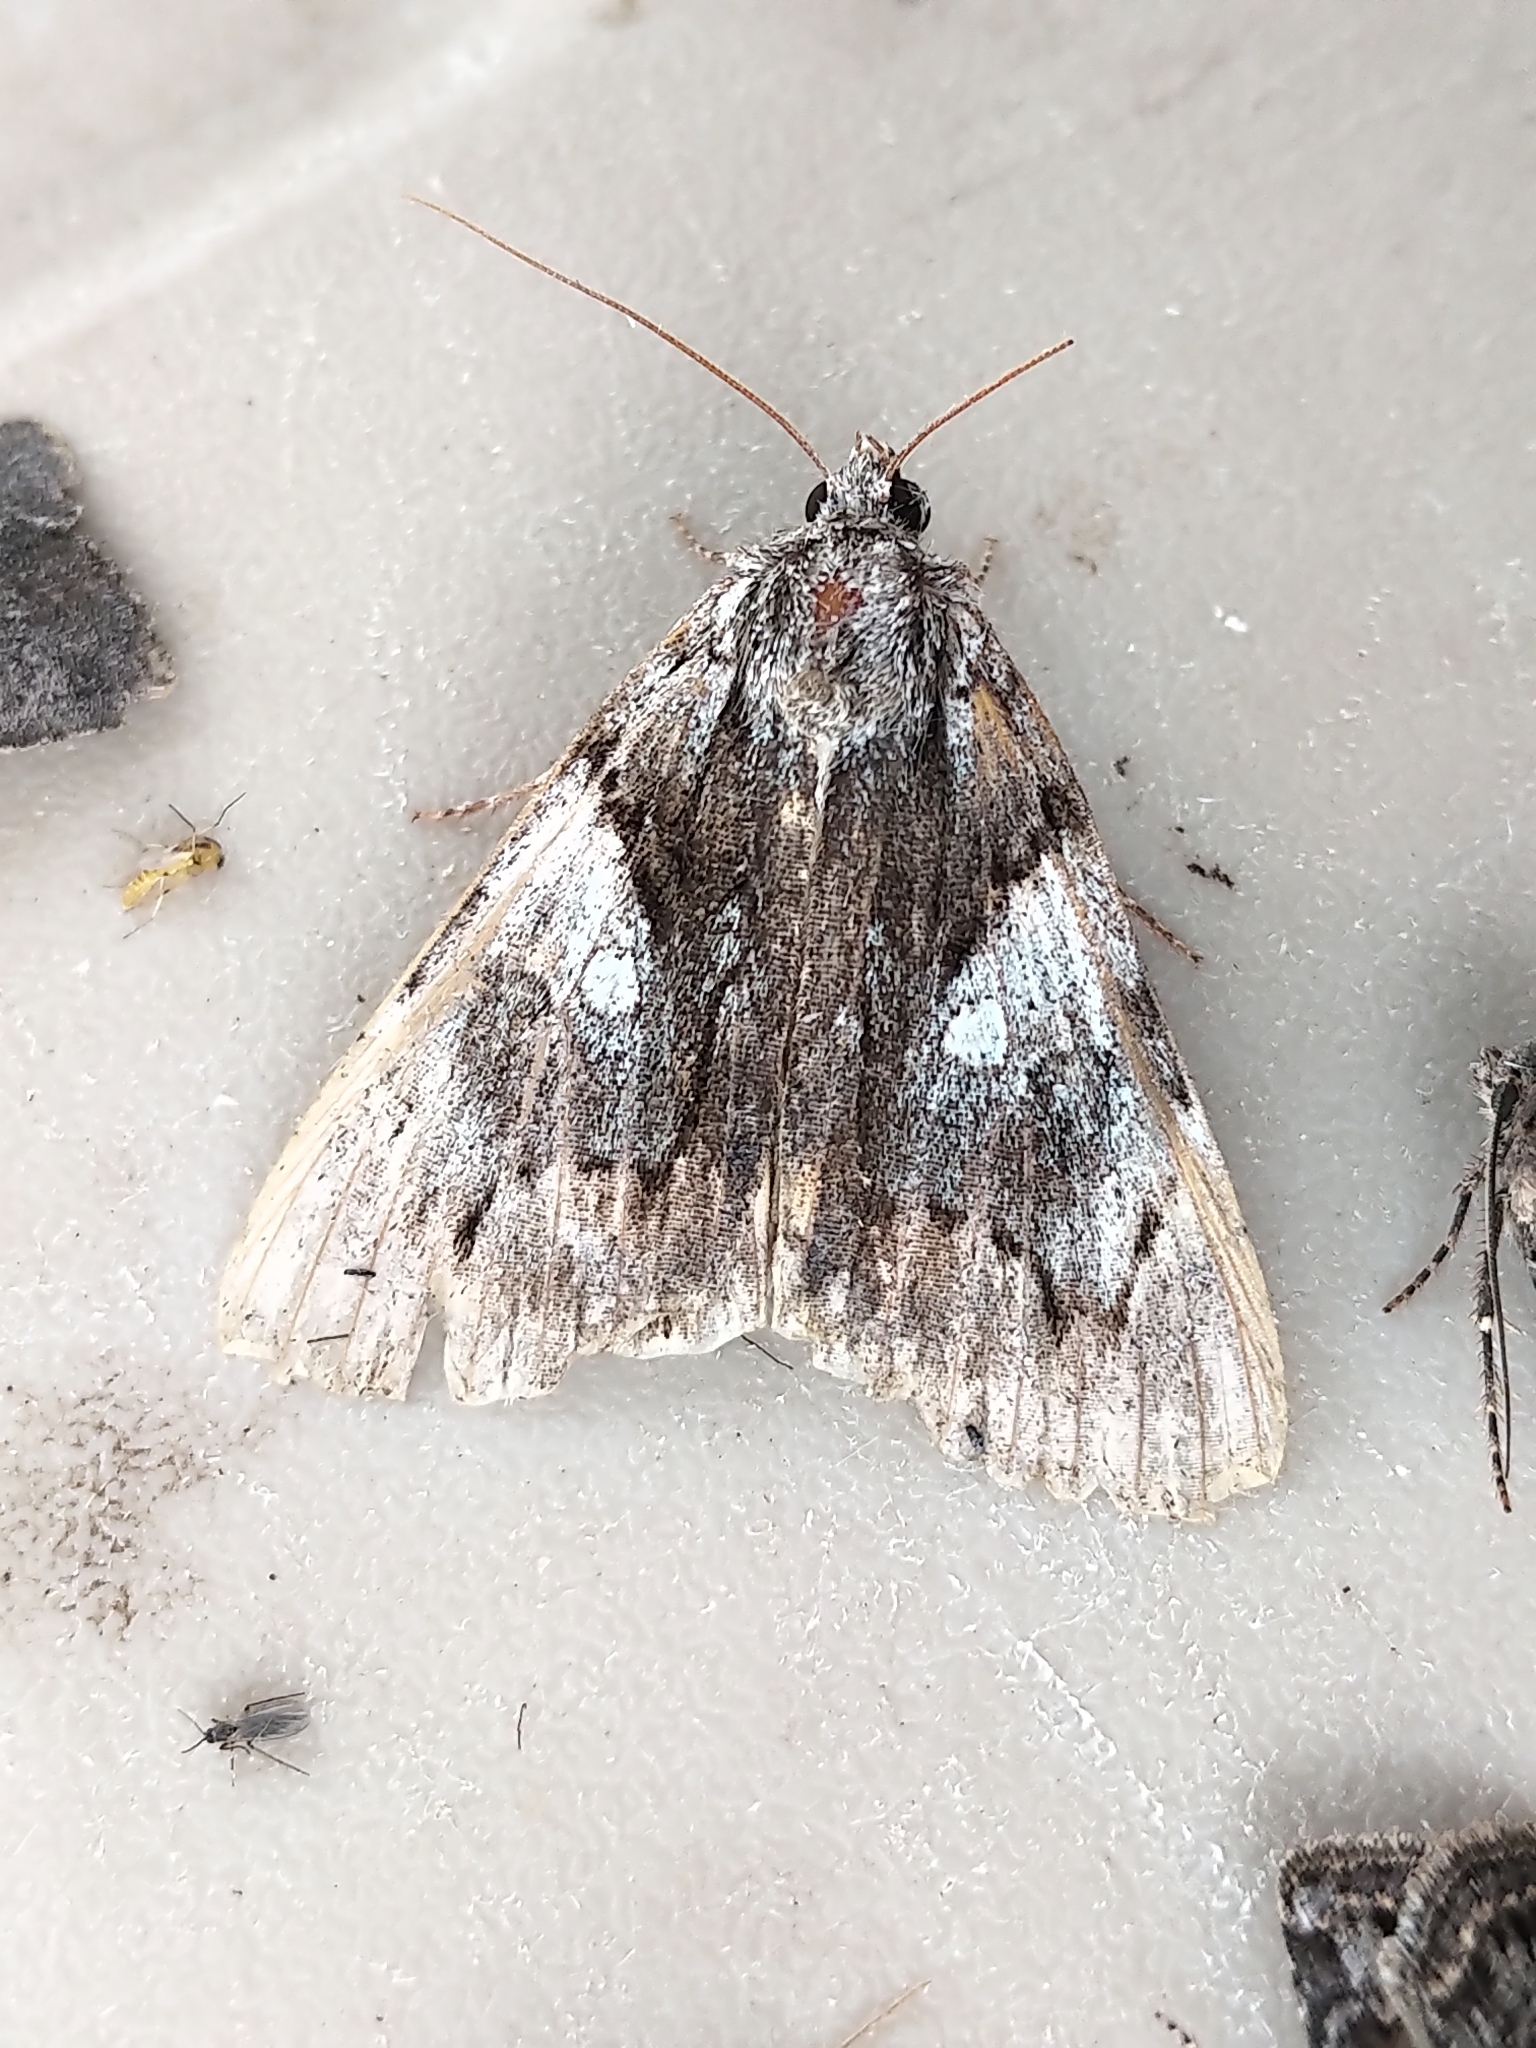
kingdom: Animalia
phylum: Arthropoda
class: Insecta
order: Lepidoptera
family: Erebidae
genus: Catocala
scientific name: Catocala blandula
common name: Charming underwing
